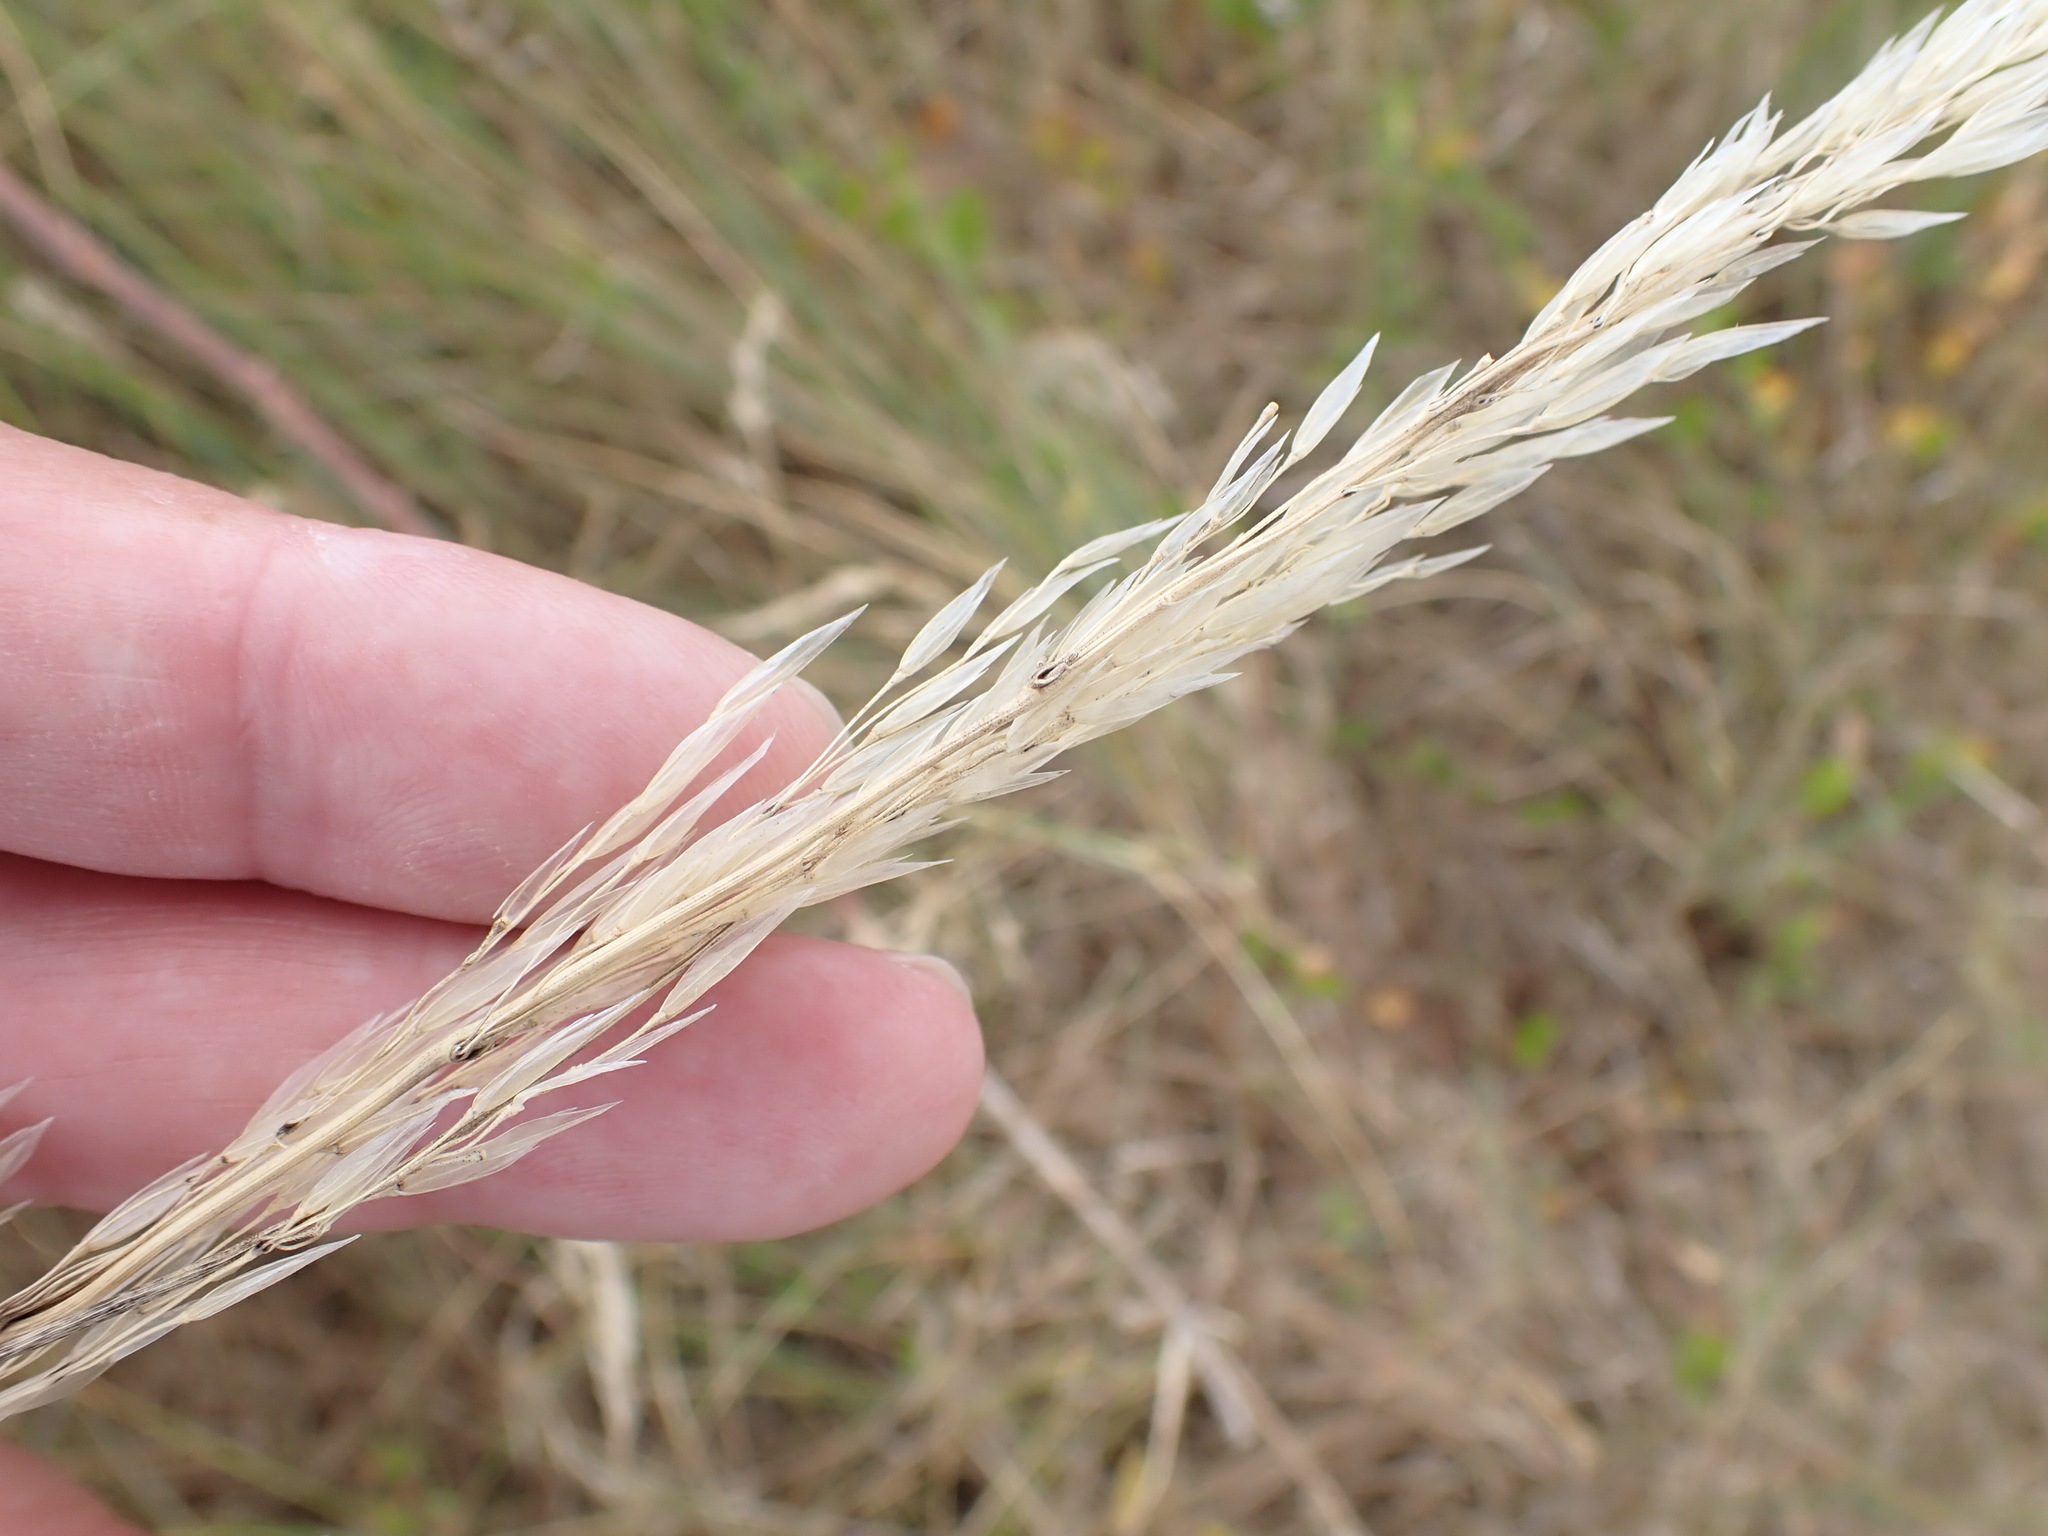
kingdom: Plantae
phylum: Tracheophyta
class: Liliopsida
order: Poales
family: Poaceae
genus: Arrhenatherum
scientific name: Arrhenatherum elatius
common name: Tall oatgrass
